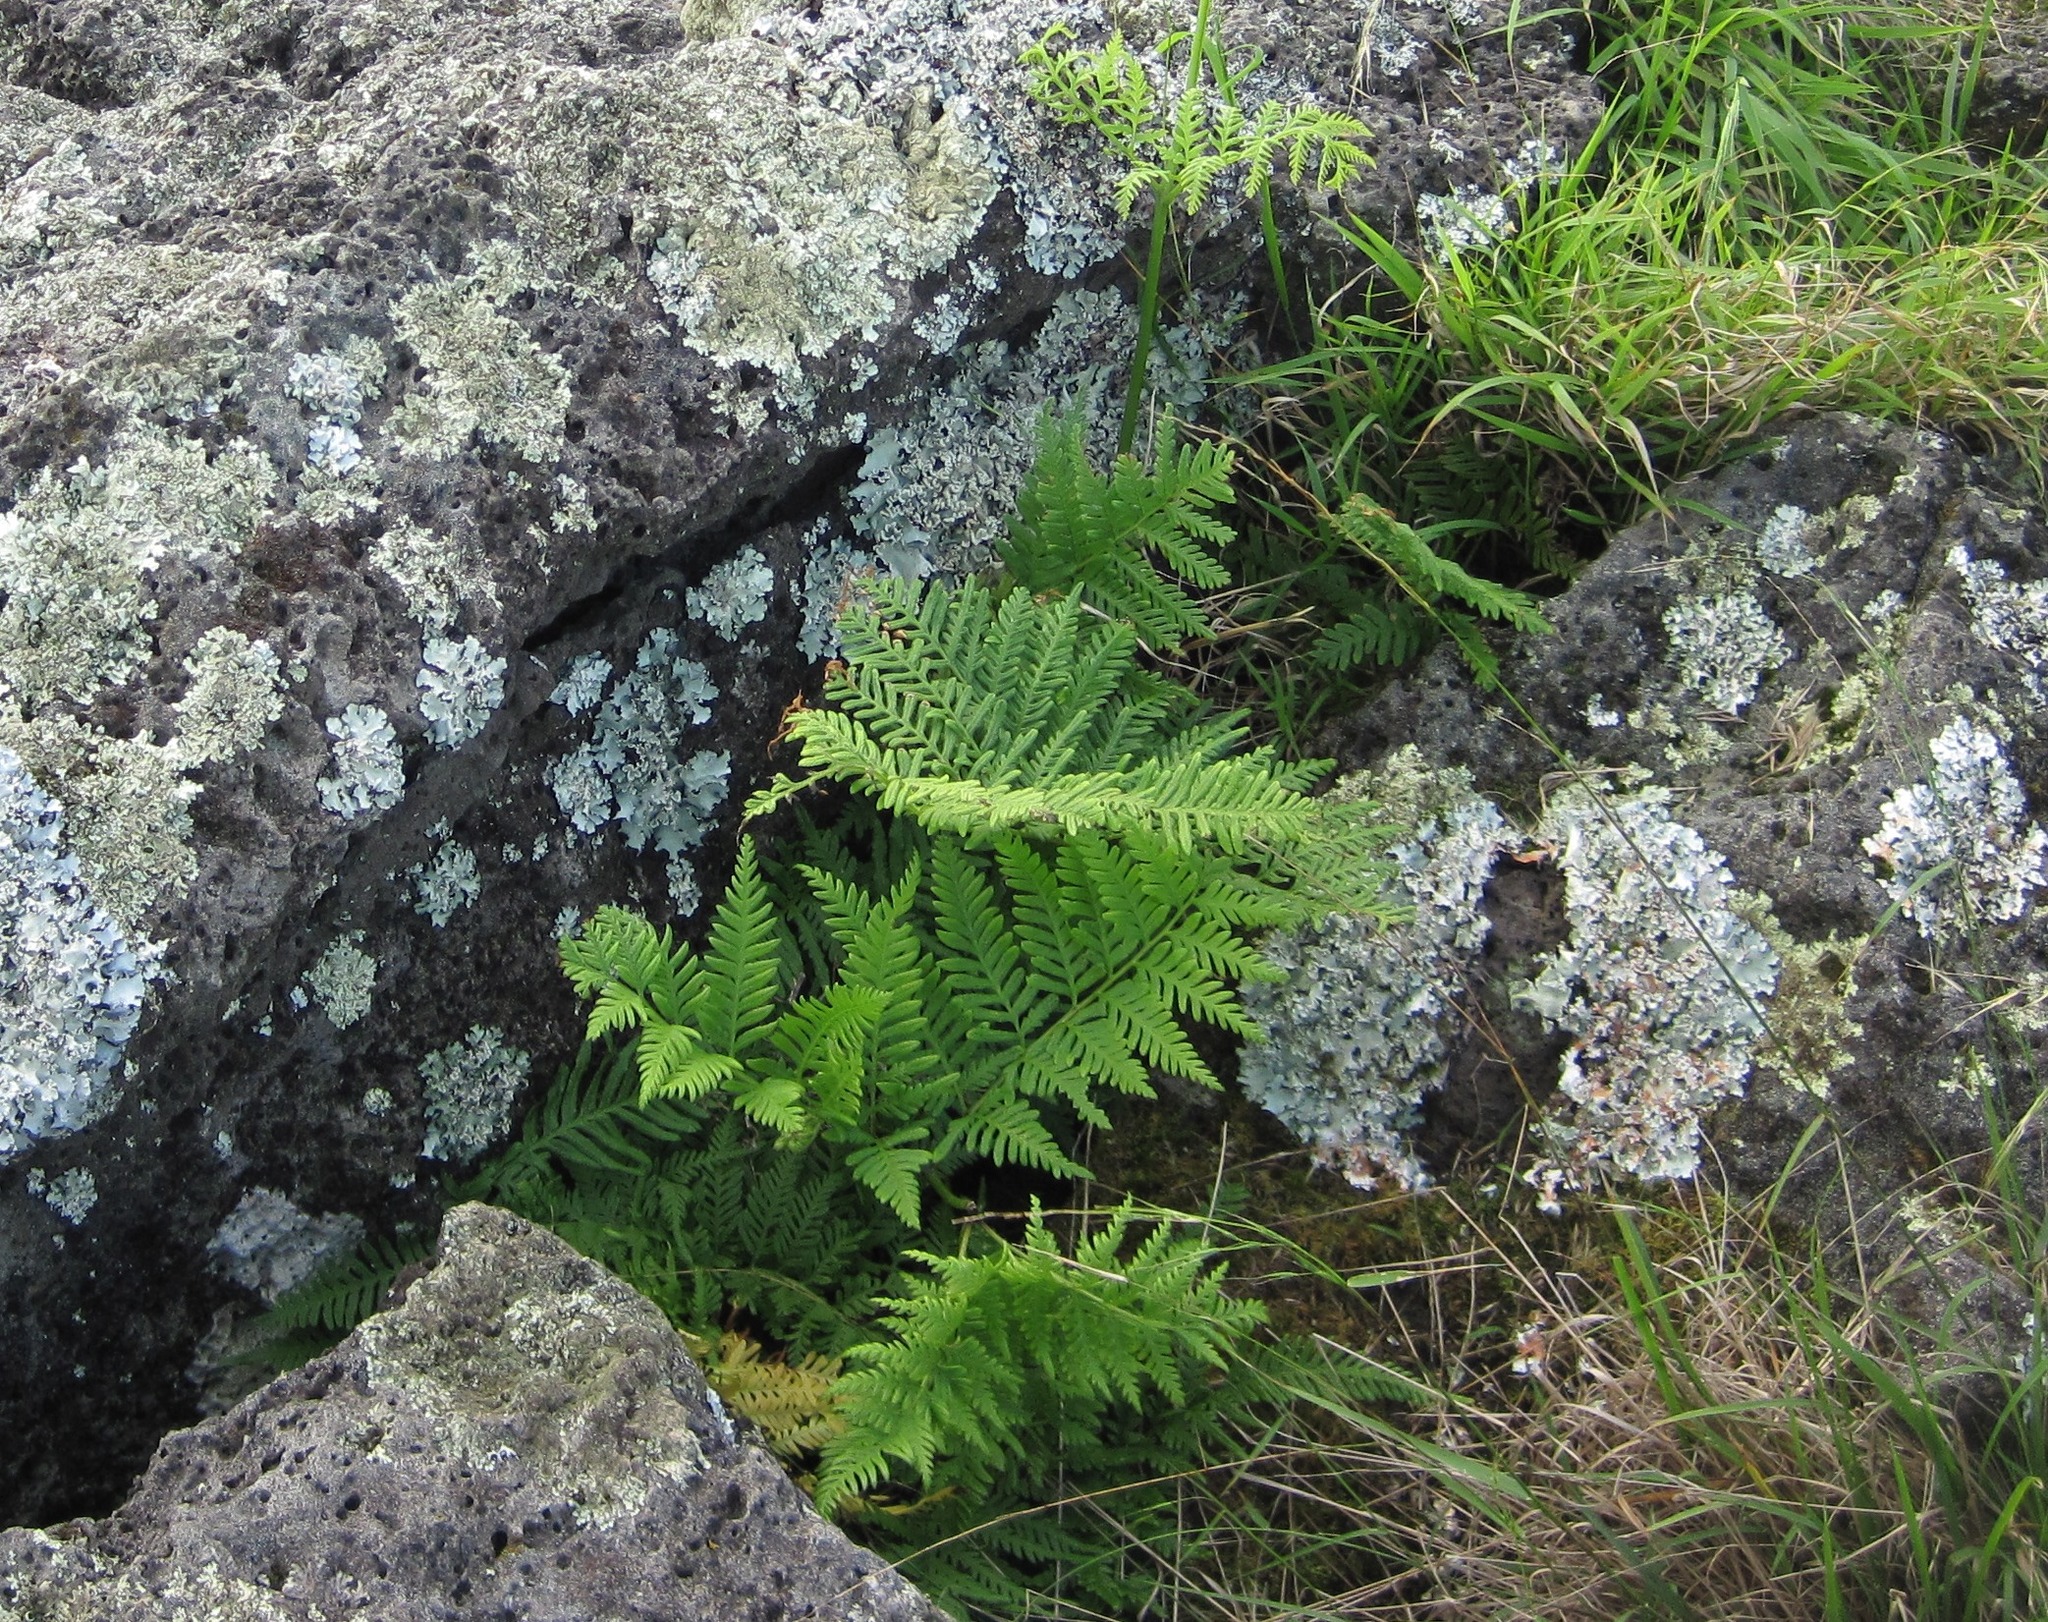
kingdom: Plantae
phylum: Tracheophyta
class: Polypodiopsida
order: Polypodiales
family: Pteridaceae
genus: Pteris
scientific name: Pteris tremula
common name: Australian brake
